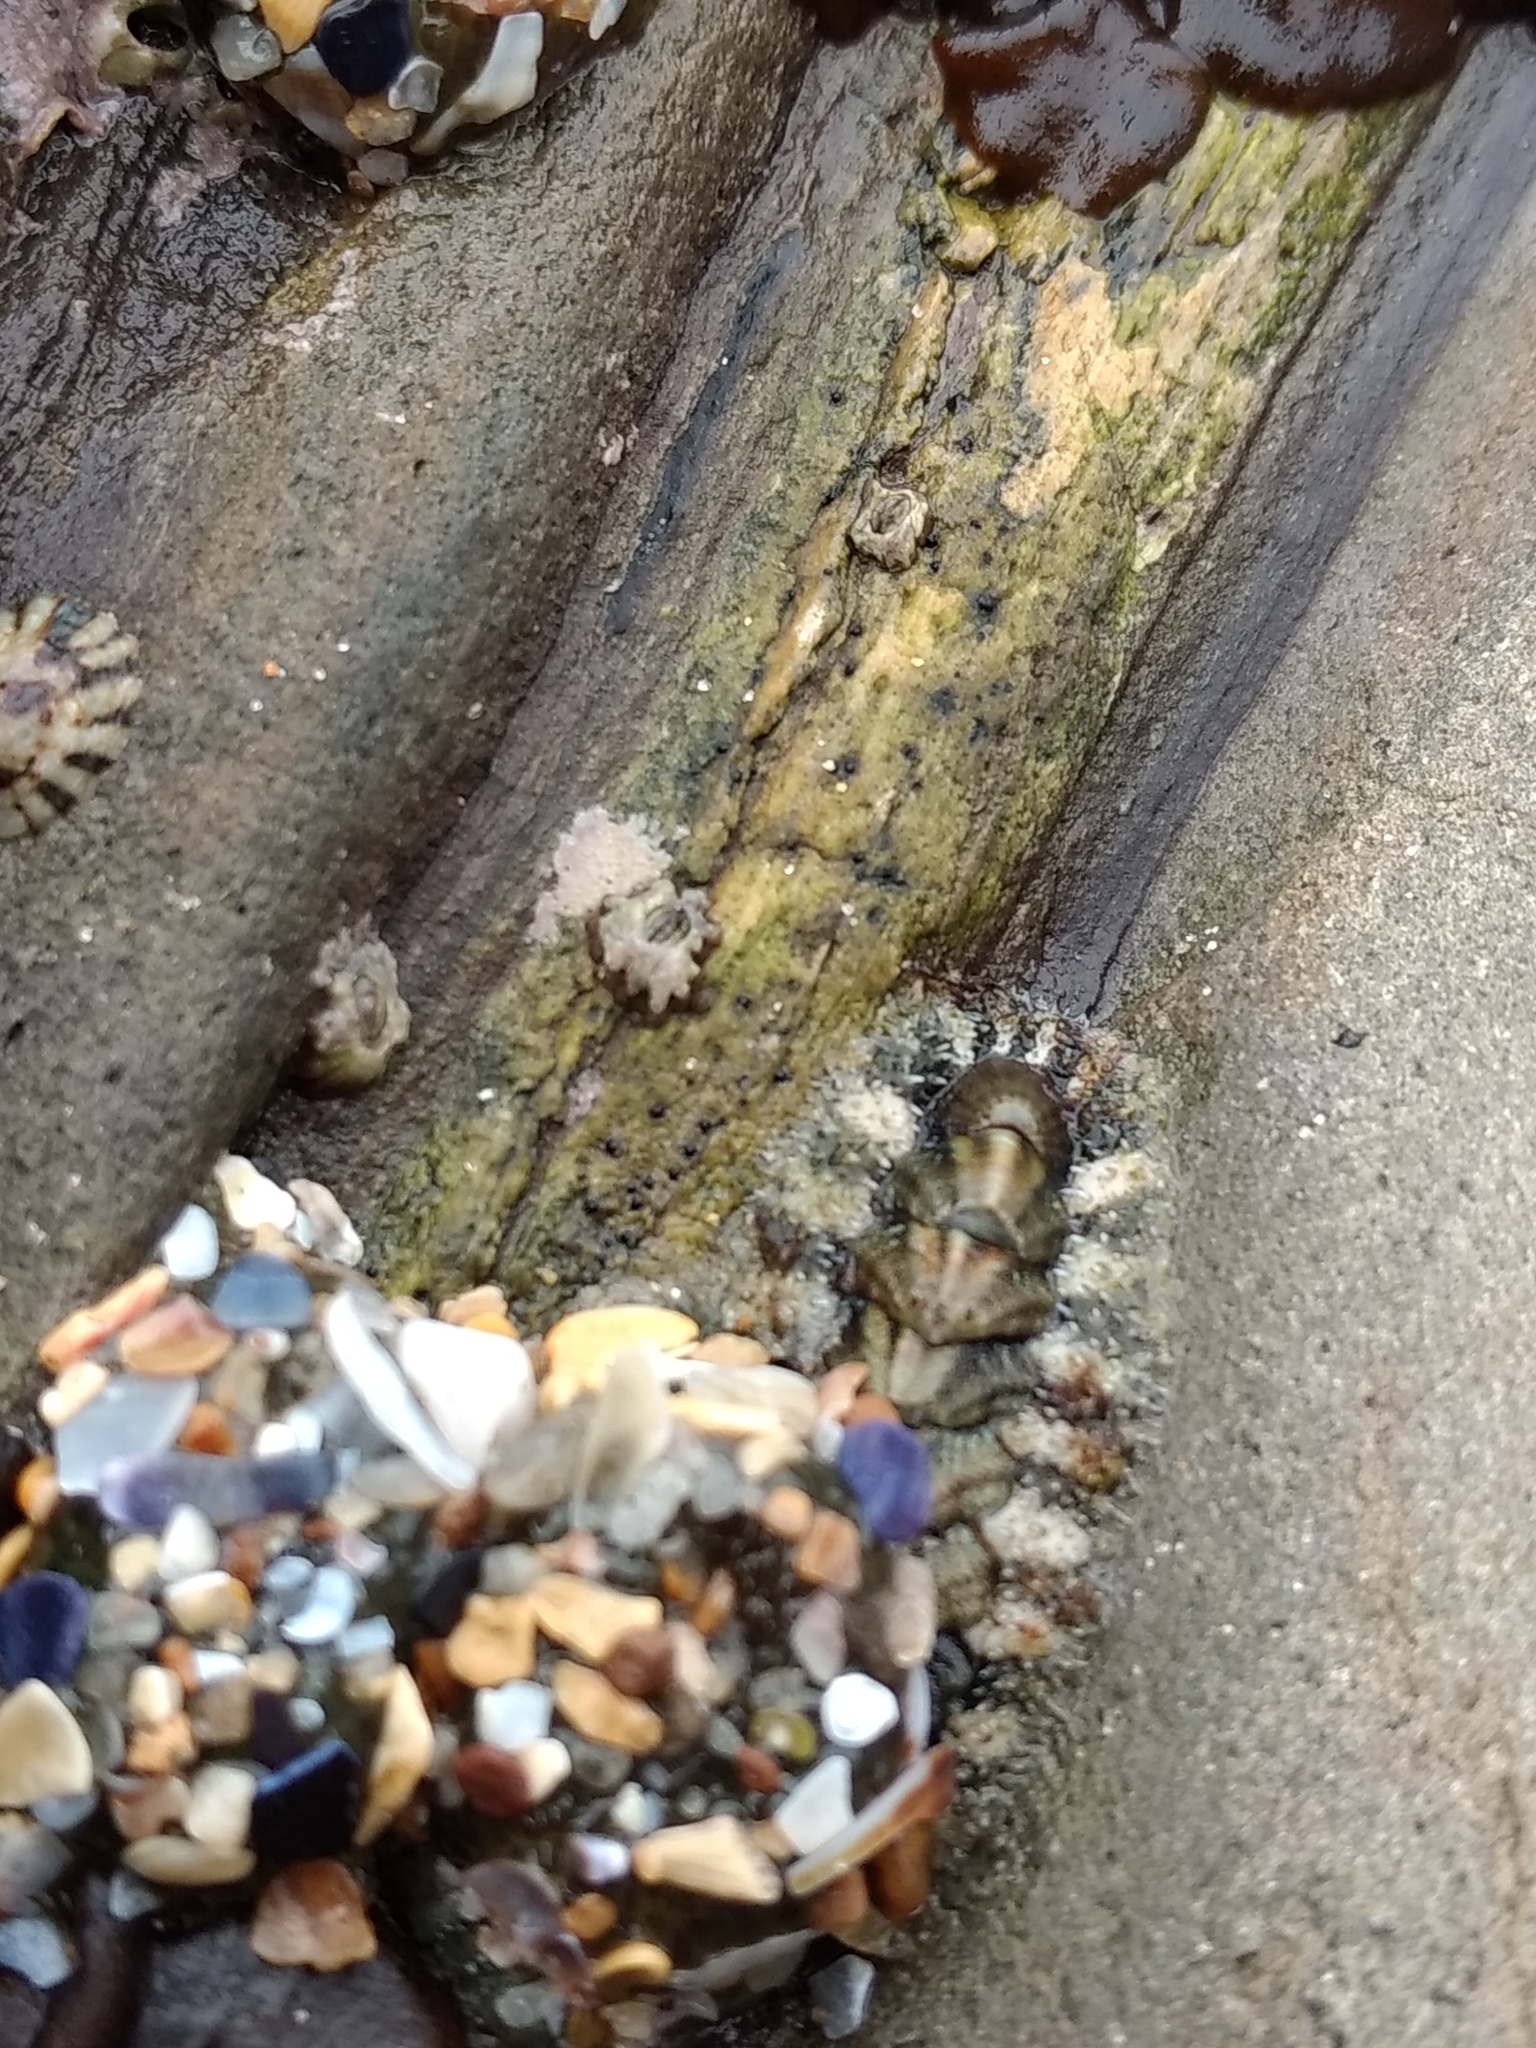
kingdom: Animalia
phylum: Mollusca
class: Polyplacophora
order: Chitonida
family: Tonicellidae
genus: Nuttallina
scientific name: Nuttallina californica
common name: California nuttall chiton
